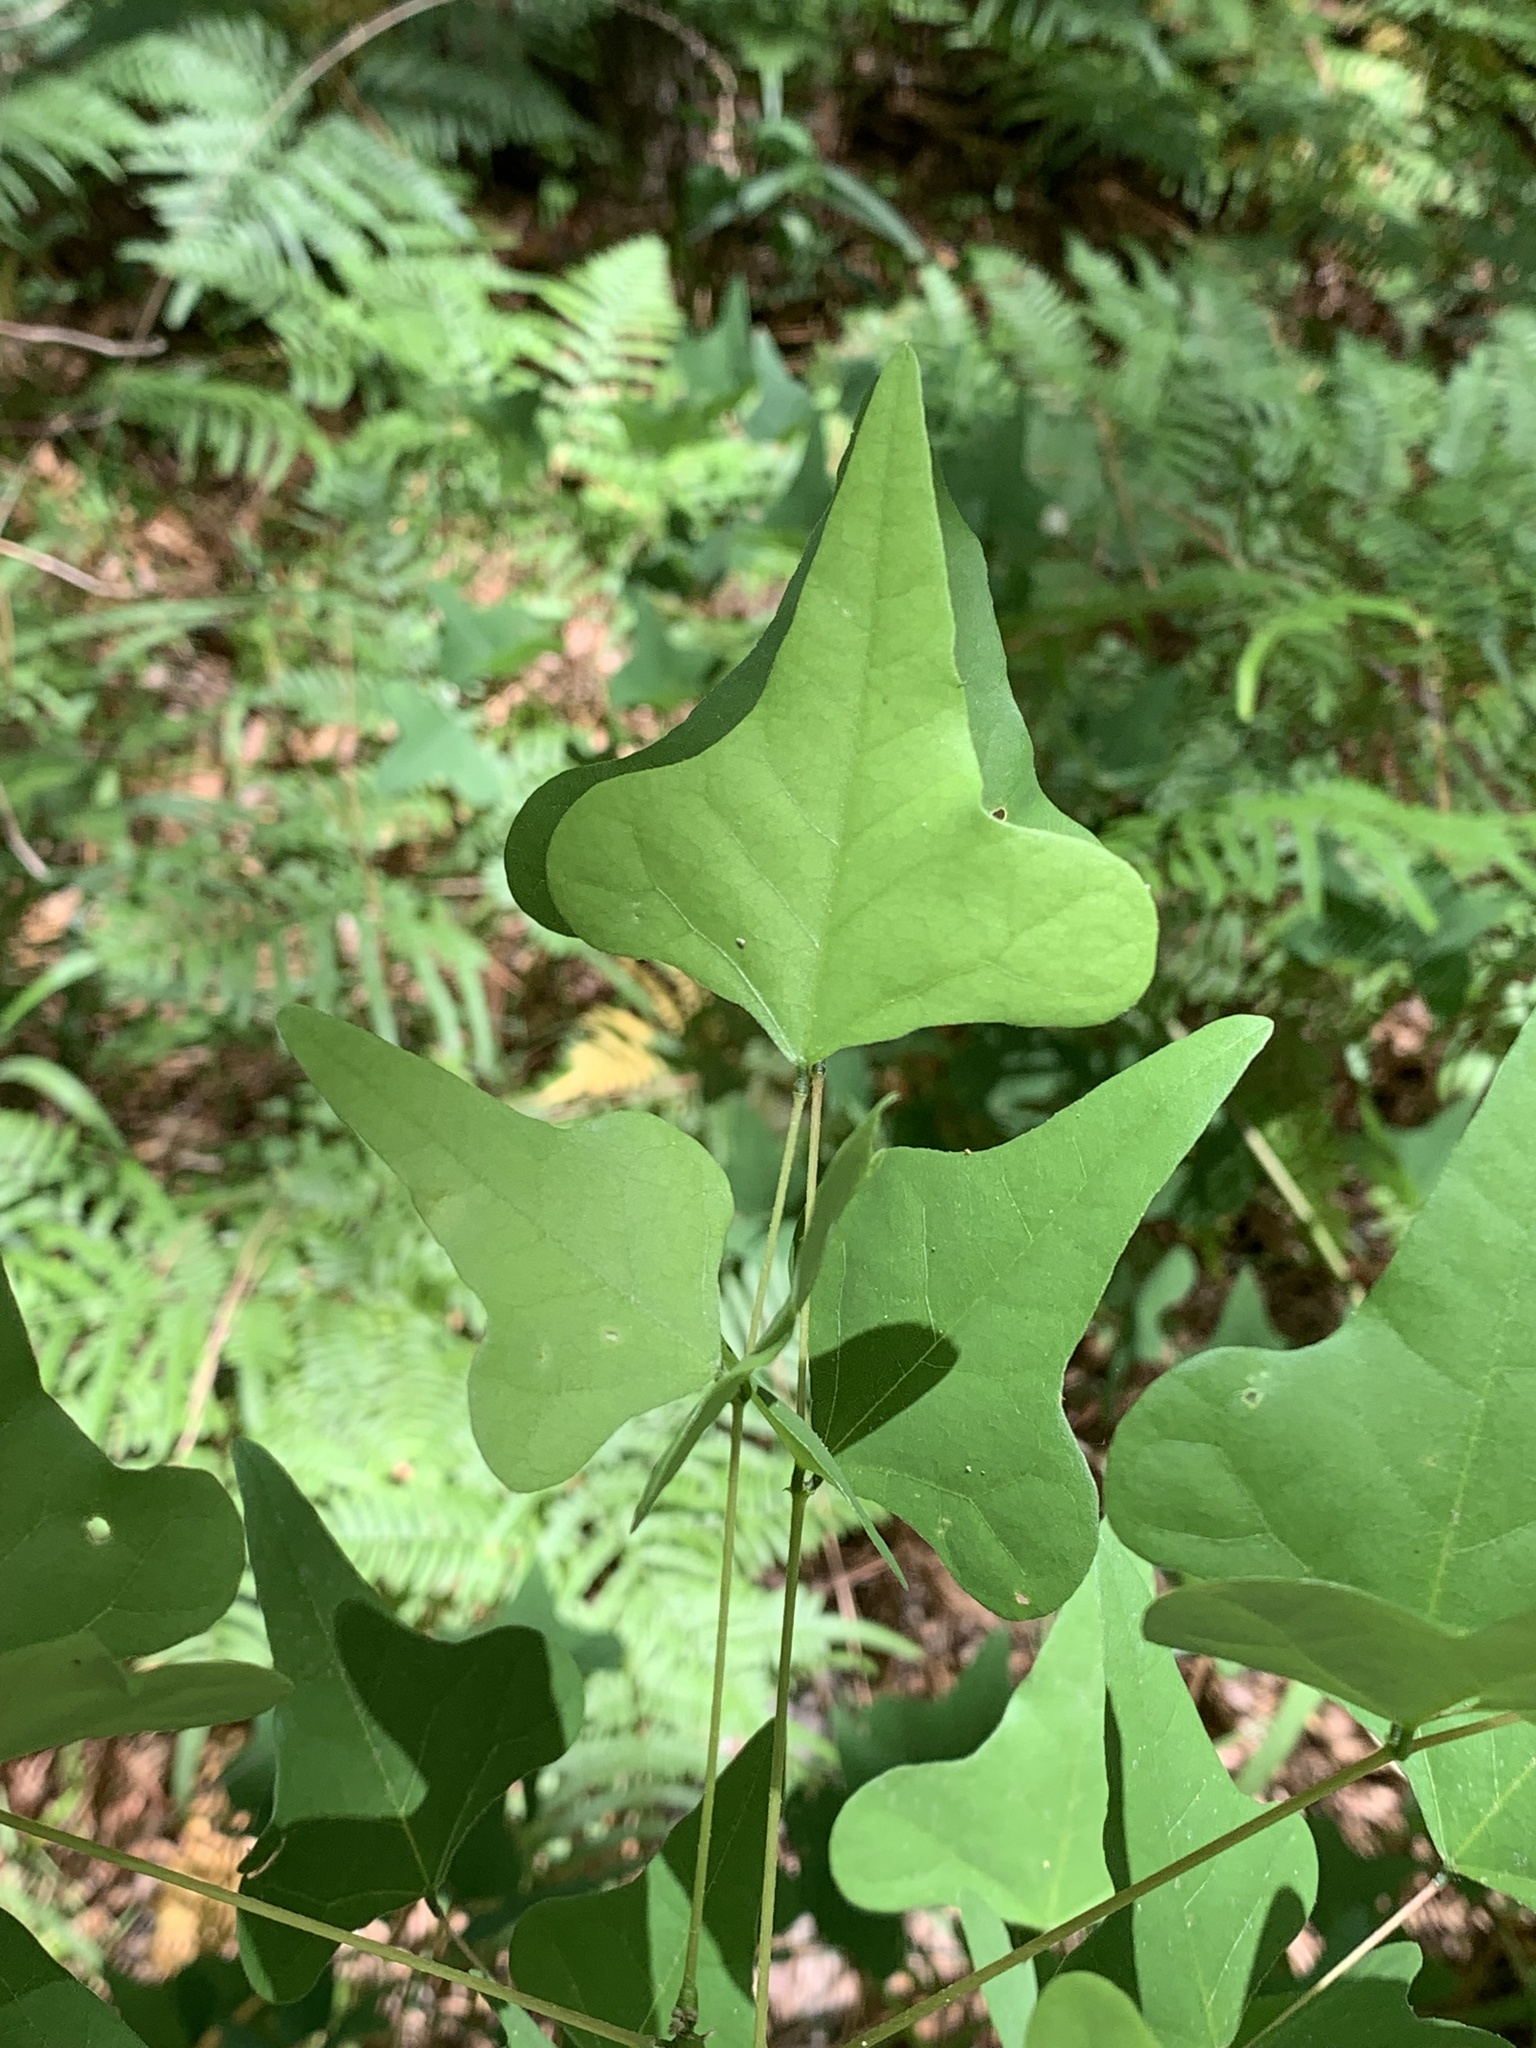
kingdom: Plantae
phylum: Tracheophyta
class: Magnoliopsida
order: Fabales
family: Fabaceae
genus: Erythrina
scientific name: Erythrina herbacea
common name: Coral-bean
